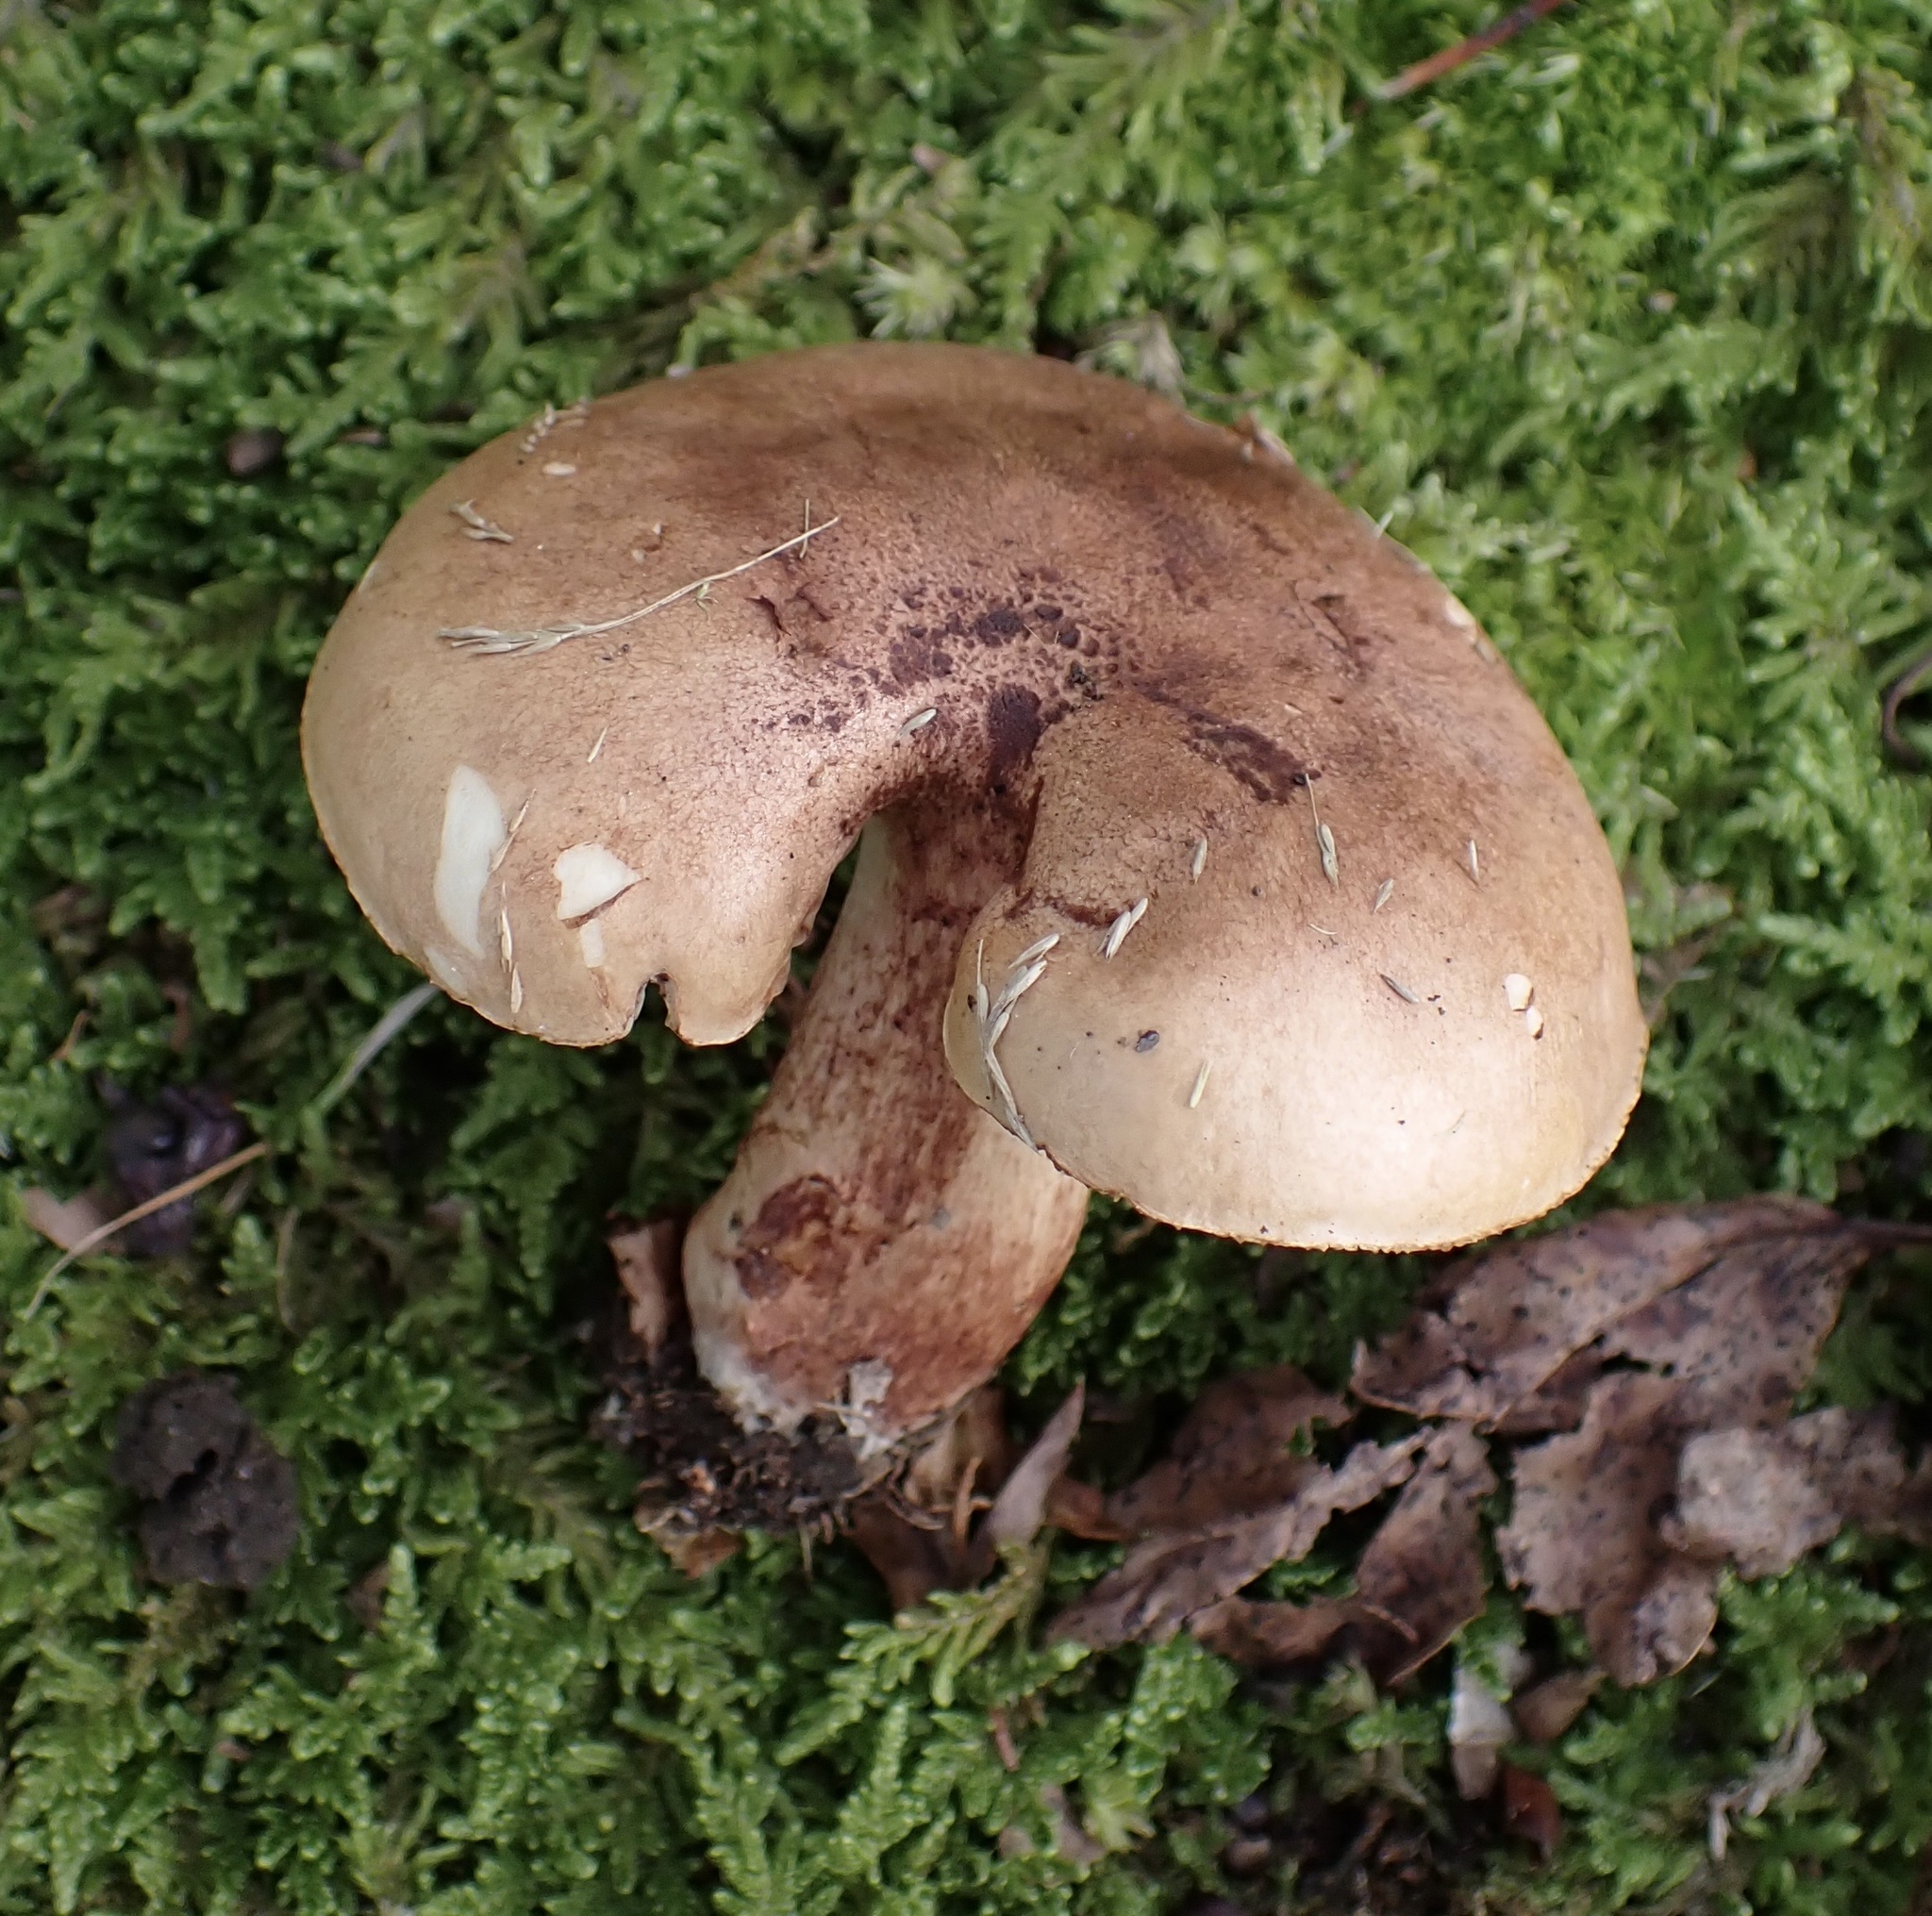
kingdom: Fungi
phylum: Basidiomycota
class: Agaricomycetes
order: Agaricales
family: Tricholomataceae
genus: Tricholoma
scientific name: Tricholoma fulvum
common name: Birch knight
